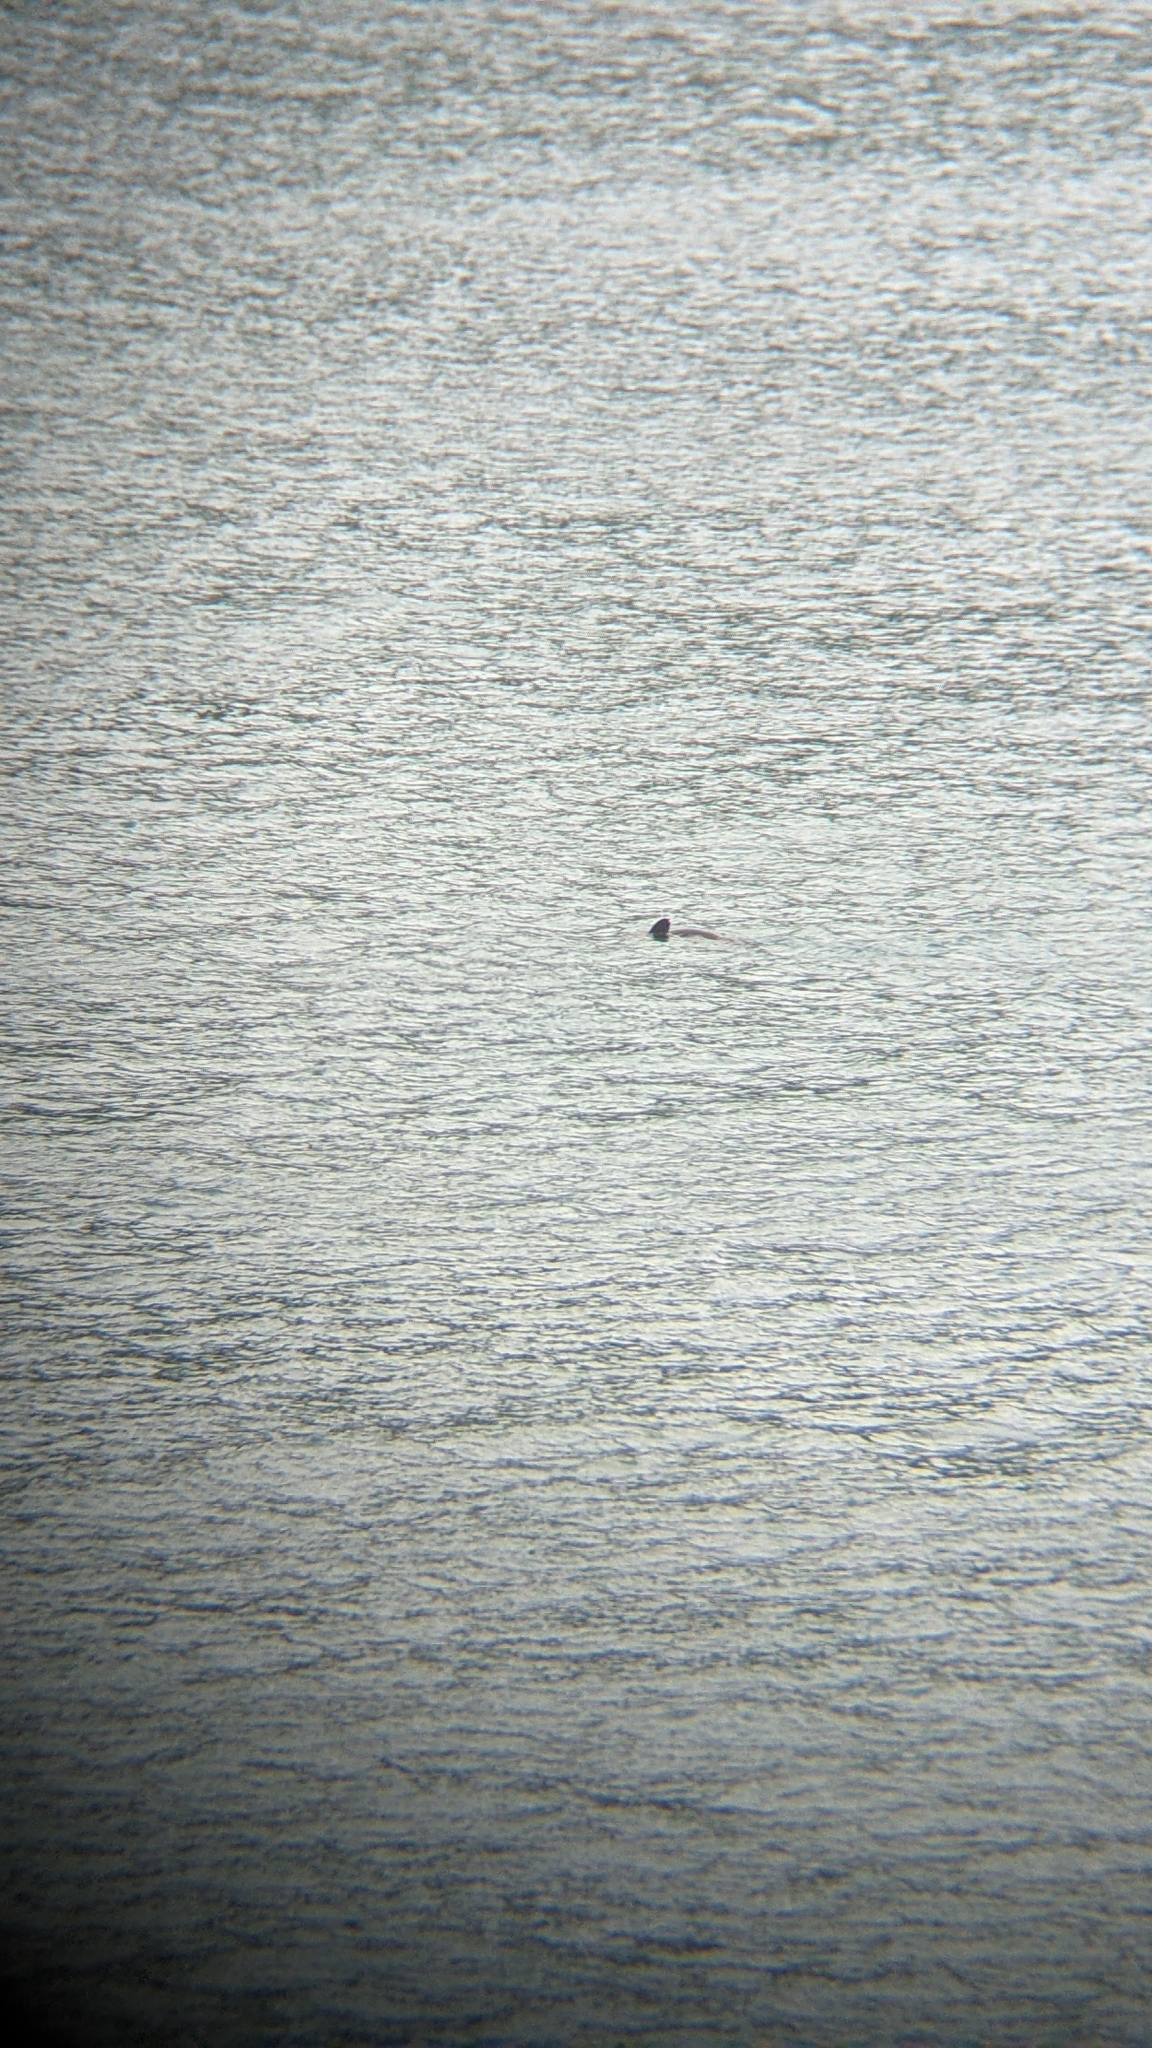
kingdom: Animalia
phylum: Chordata
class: Mammalia
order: Carnivora
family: Otariidae
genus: Arctocephalus
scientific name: Arctocephalus forsteri
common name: New zealand fur seal
